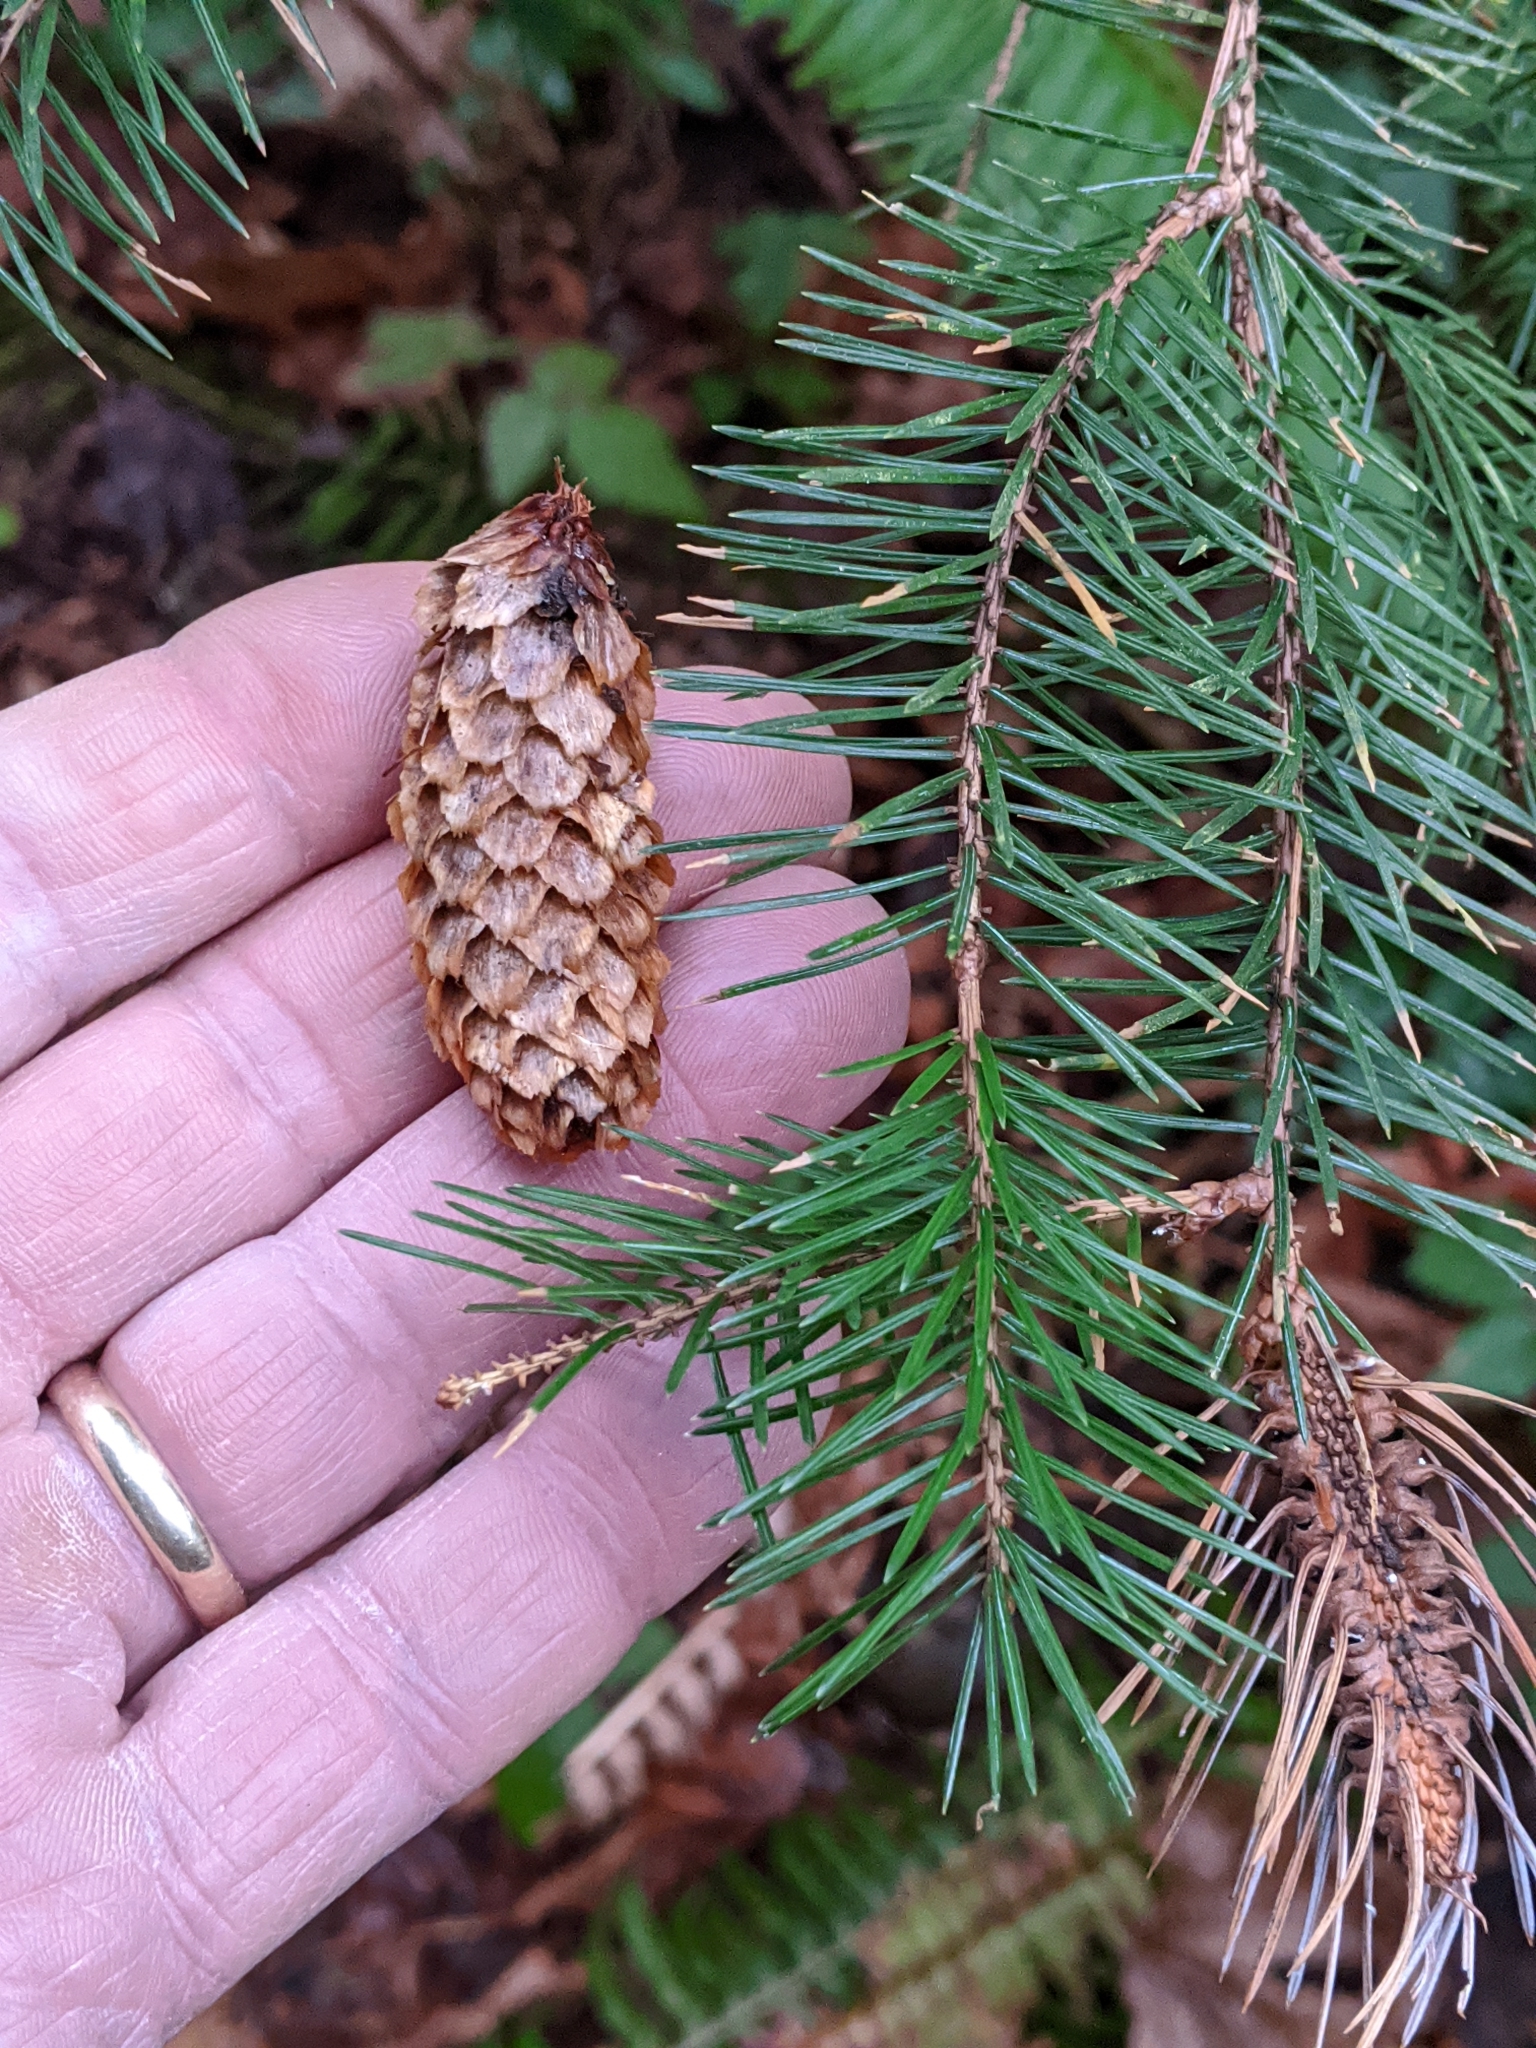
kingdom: Plantae
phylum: Tracheophyta
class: Pinopsida
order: Pinales
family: Pinaceae
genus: Picea
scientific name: Picea sitchensis
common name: Sitka spruce
